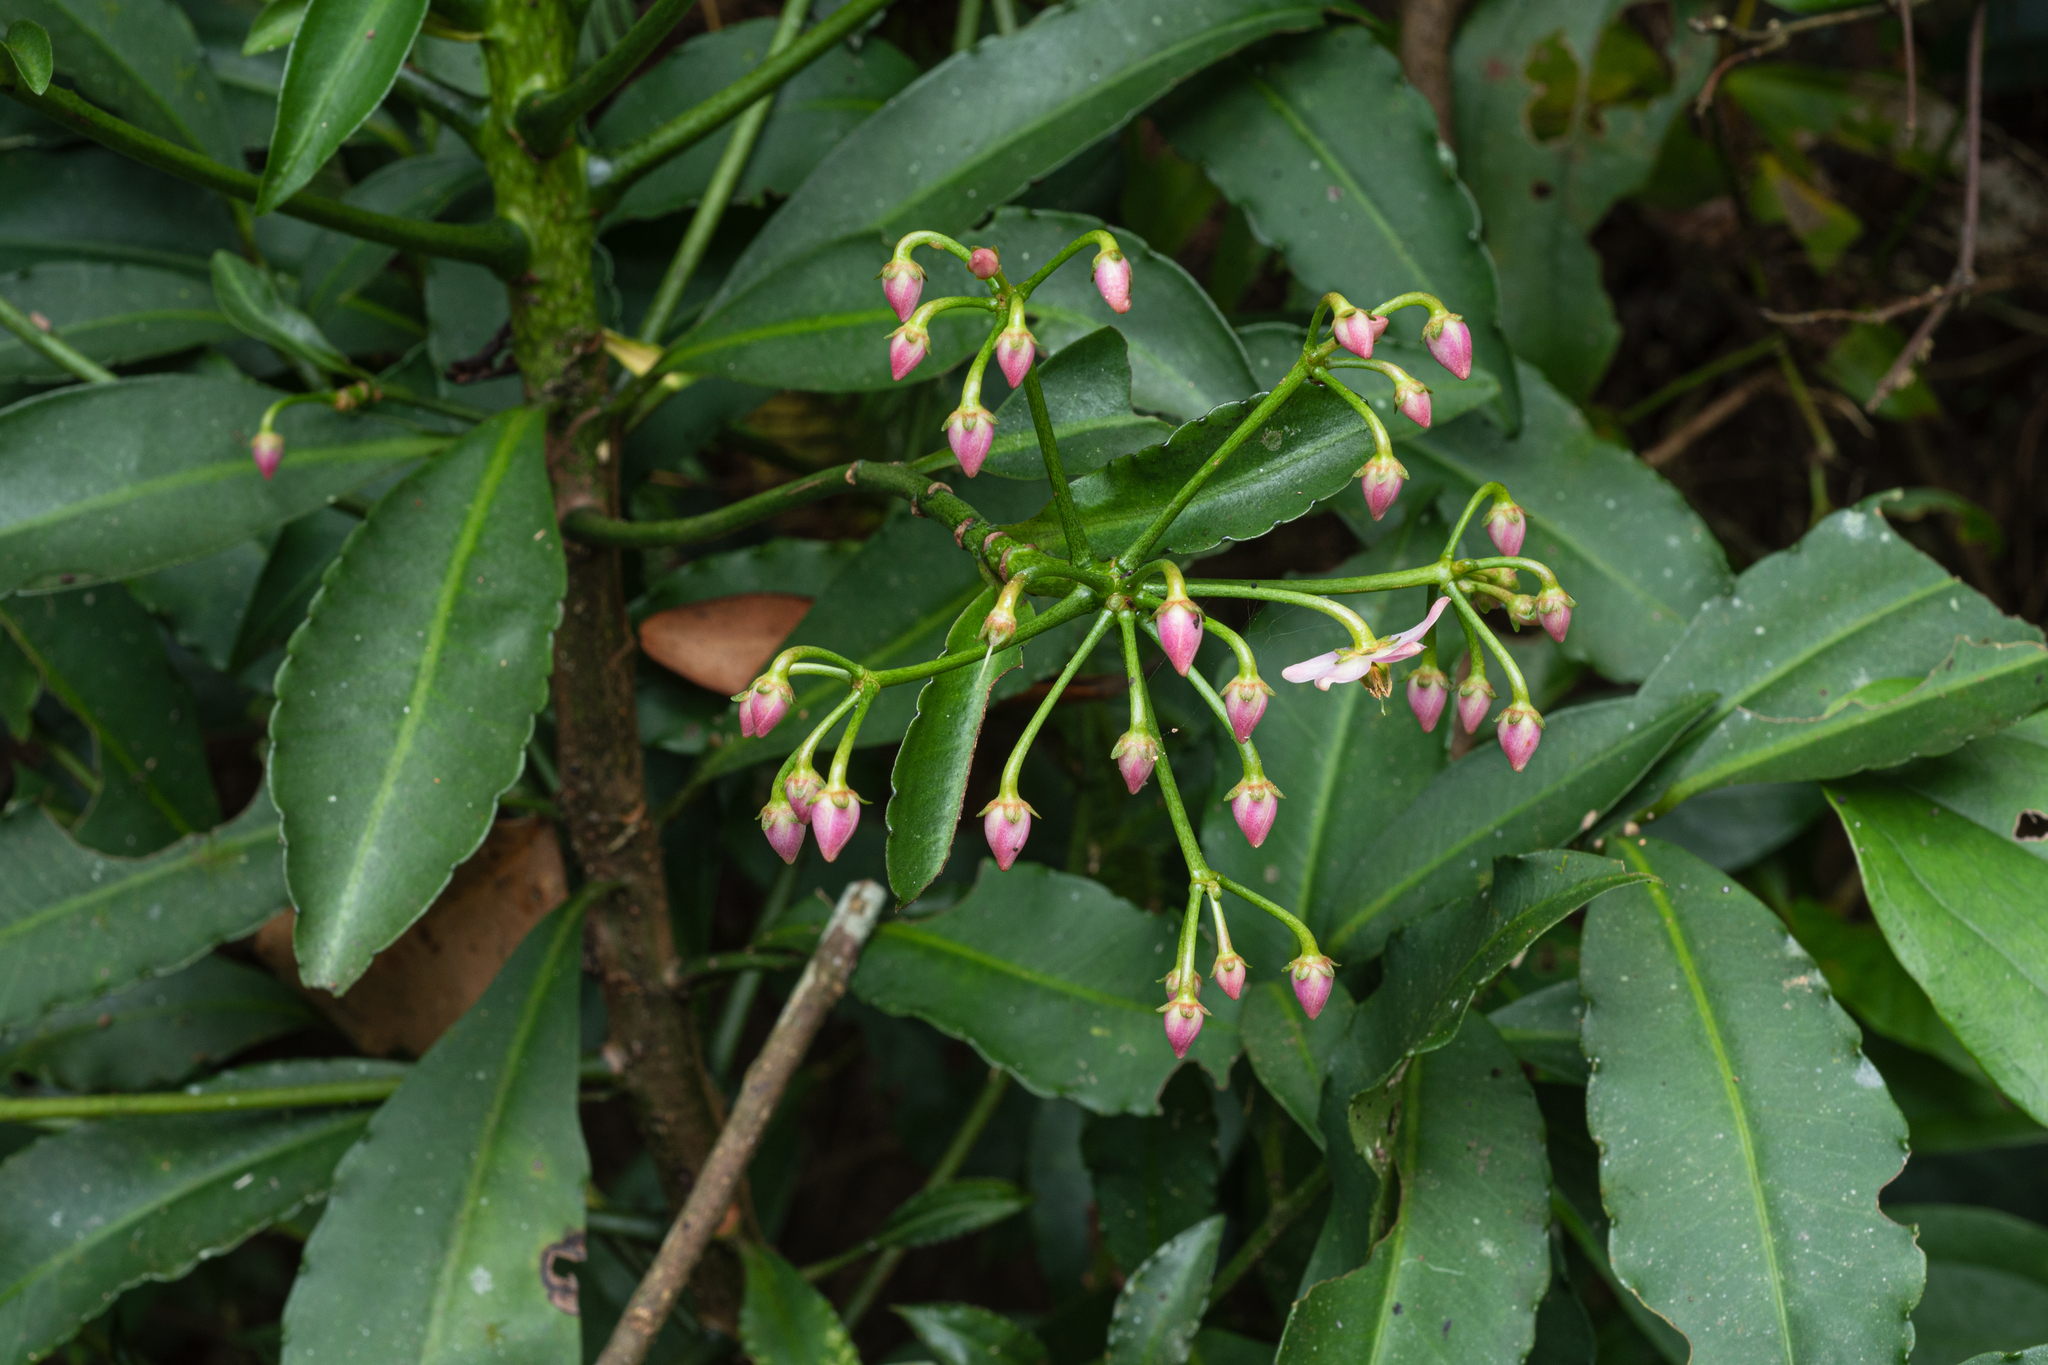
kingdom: Plantae
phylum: Tracheophyta
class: Magnoliopsida
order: Ericales
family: Primulaceae
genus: Ardisia
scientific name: Ardisia polysticta
